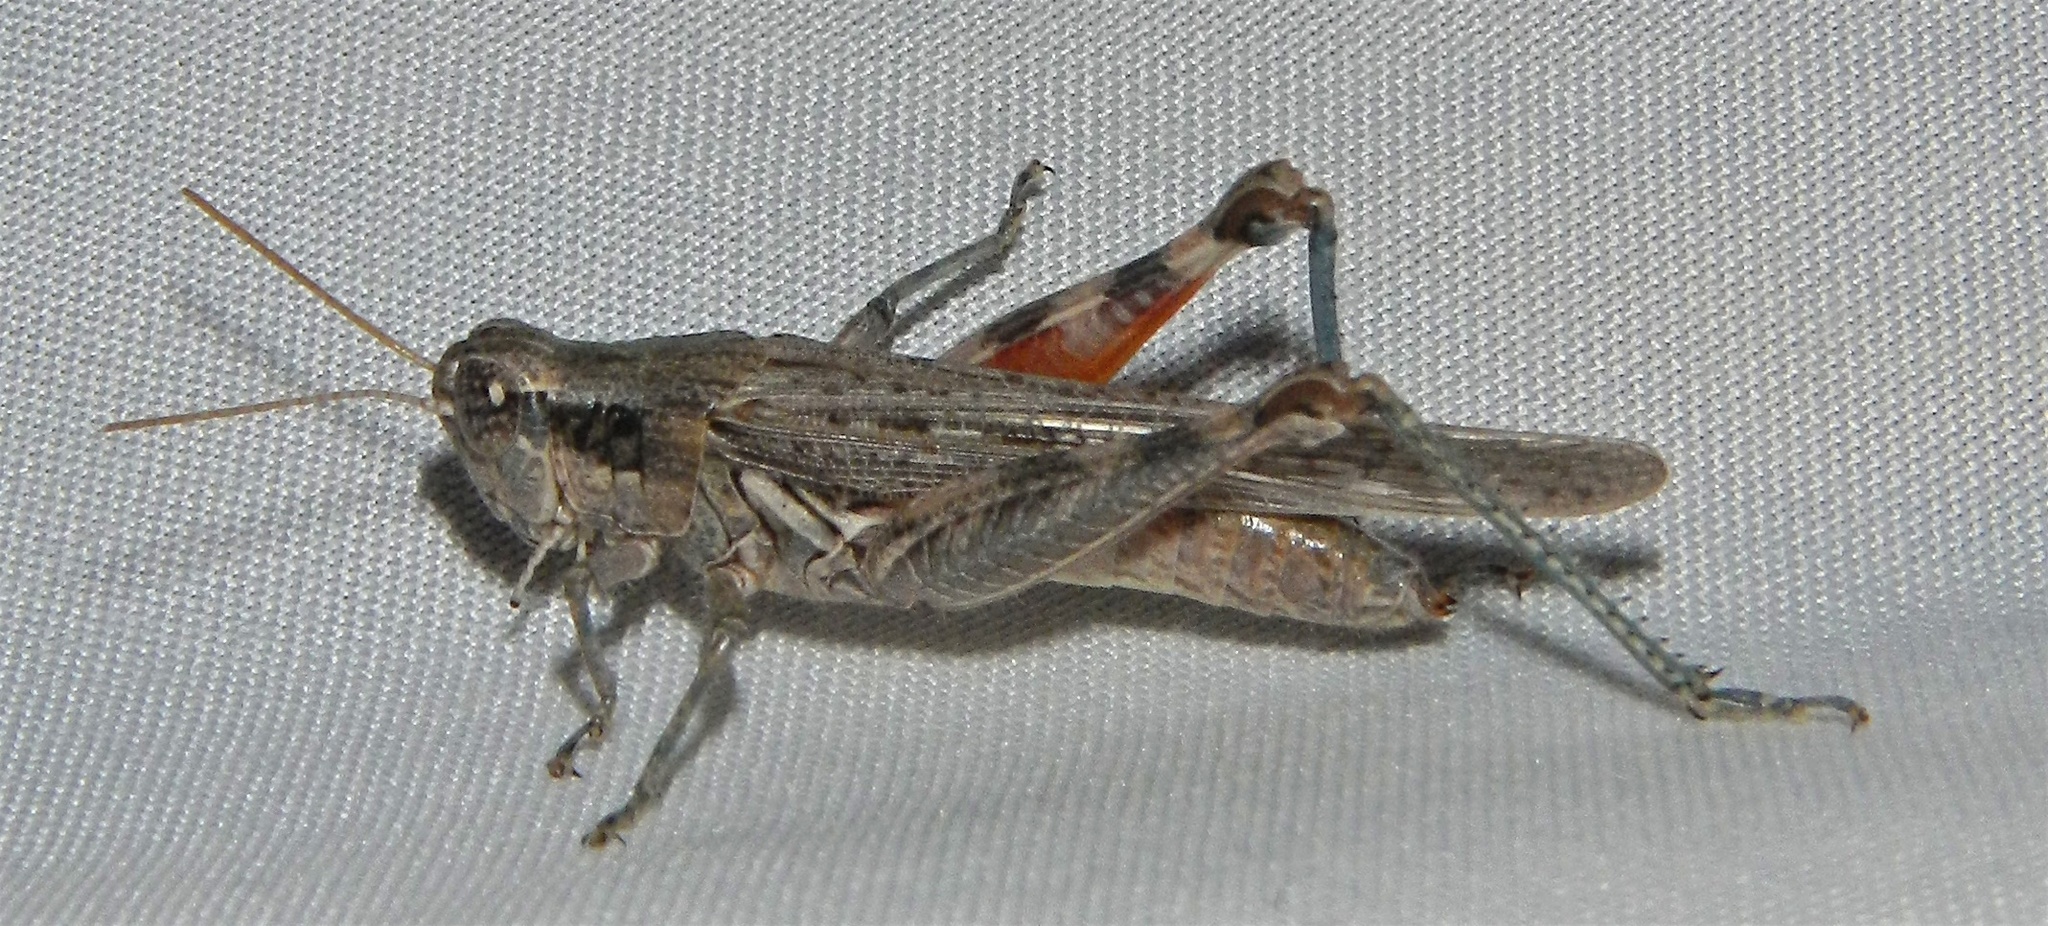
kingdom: Animalia
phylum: Arthropoda
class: Insecta
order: Orthoptera
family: Acrididae
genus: Melanoplus
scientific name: Melanoplus complanatipes
